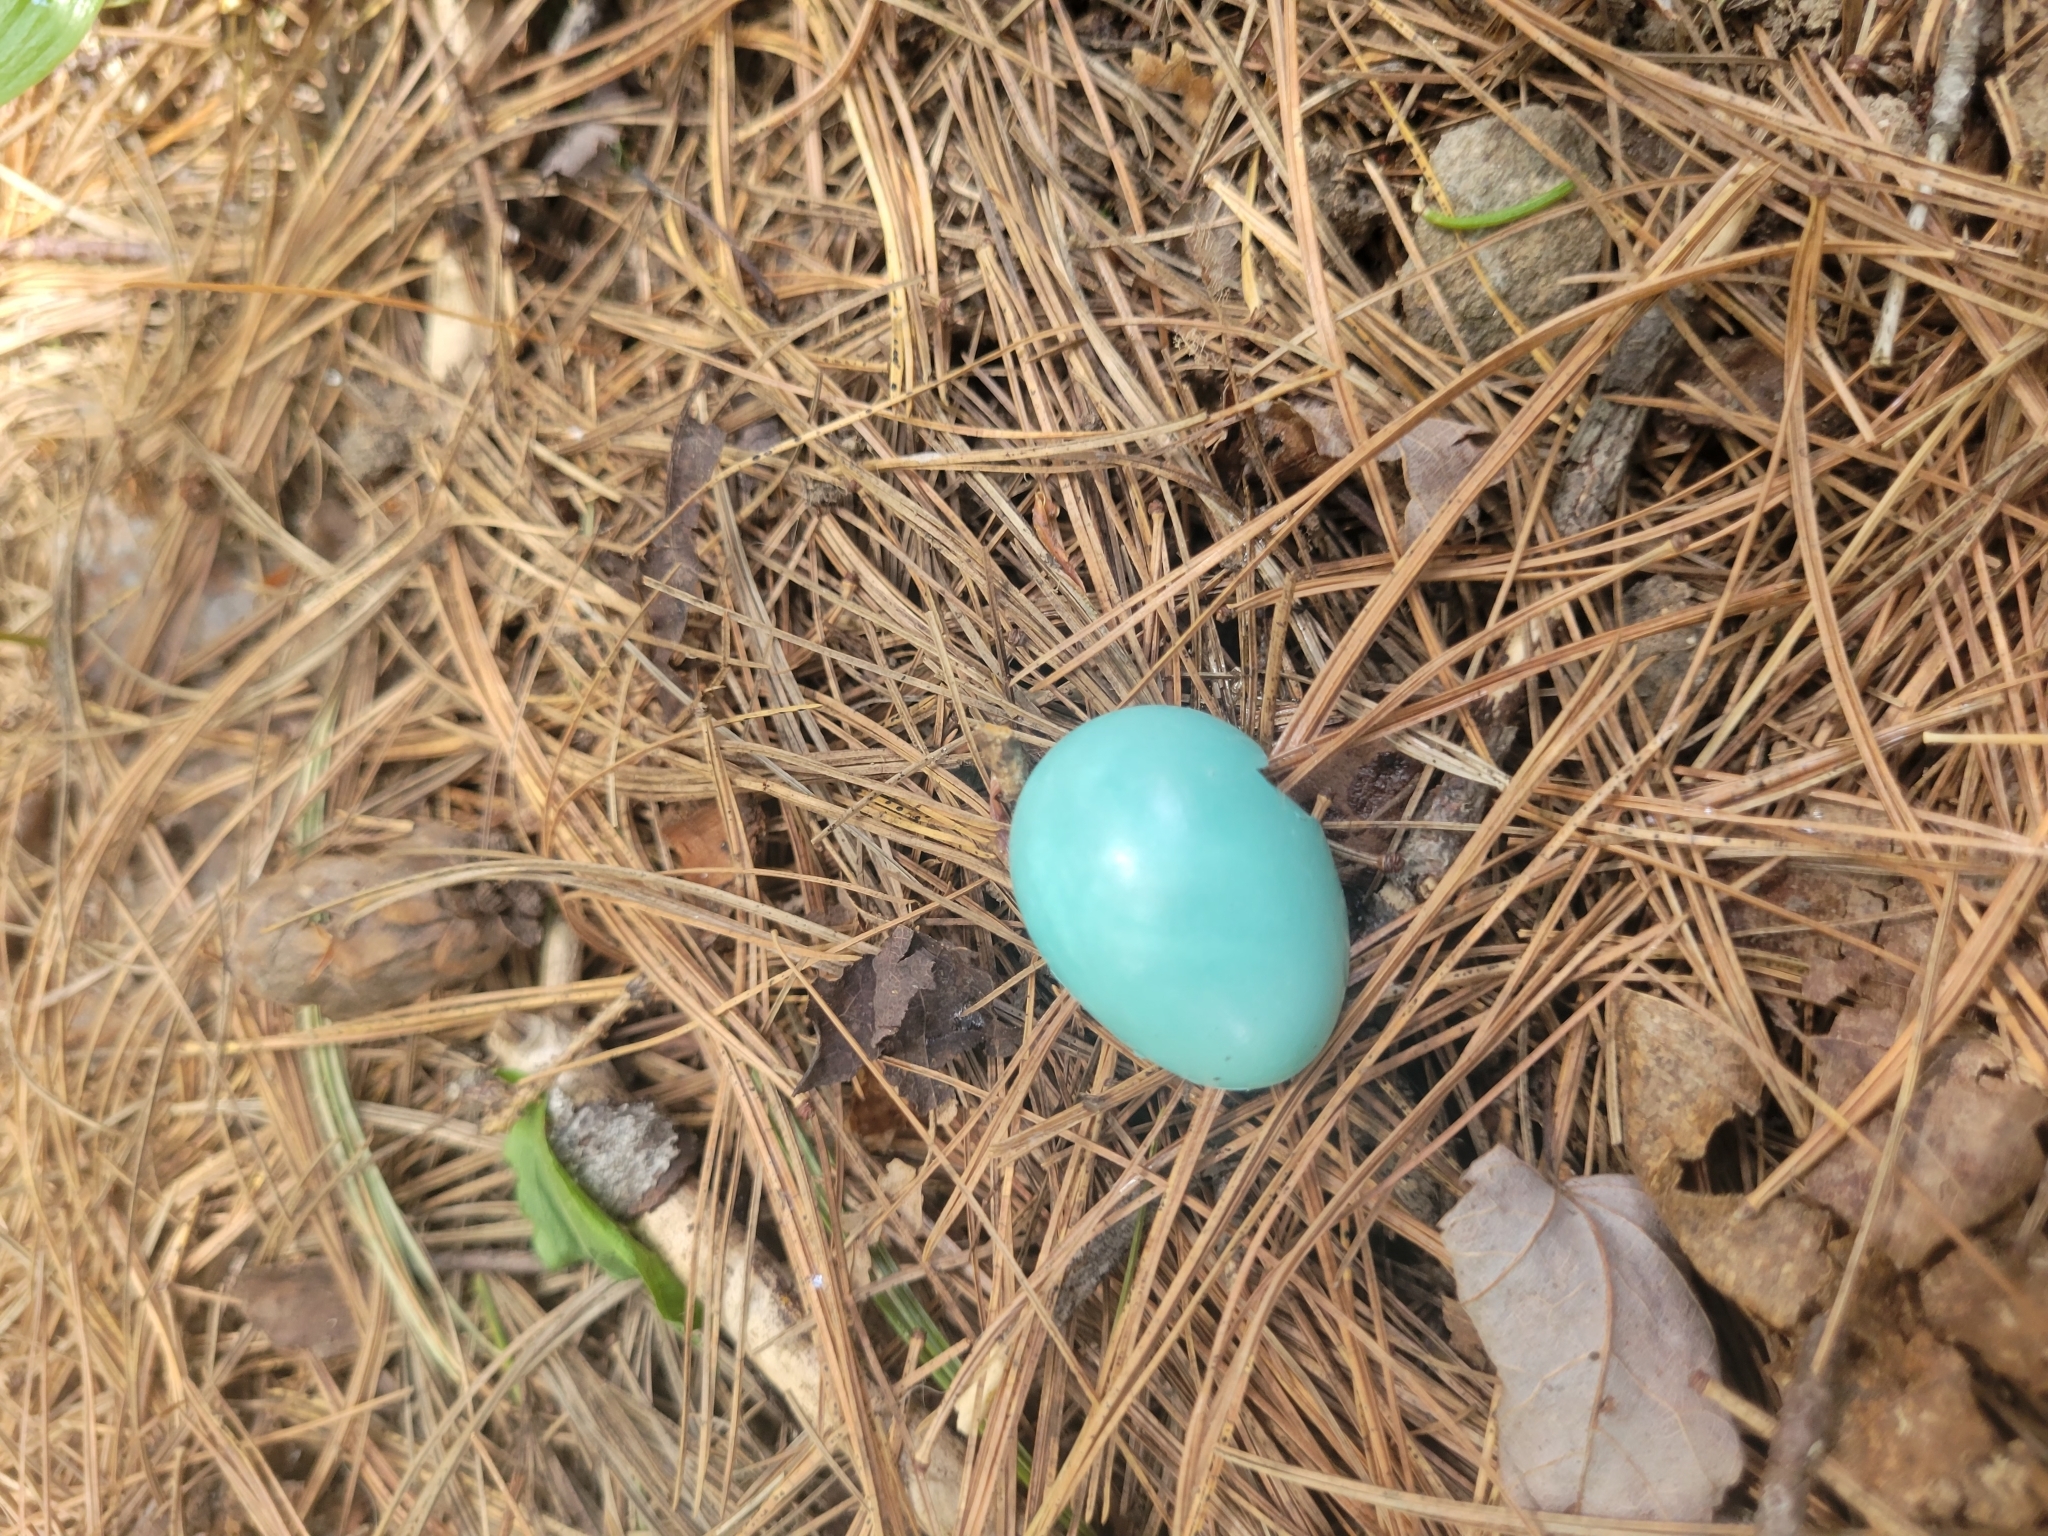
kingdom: Animalia
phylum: Chordata
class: Aves
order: Passeriformes
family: Turdidae
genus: Turdus
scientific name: Turdus migratorius
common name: American robin
